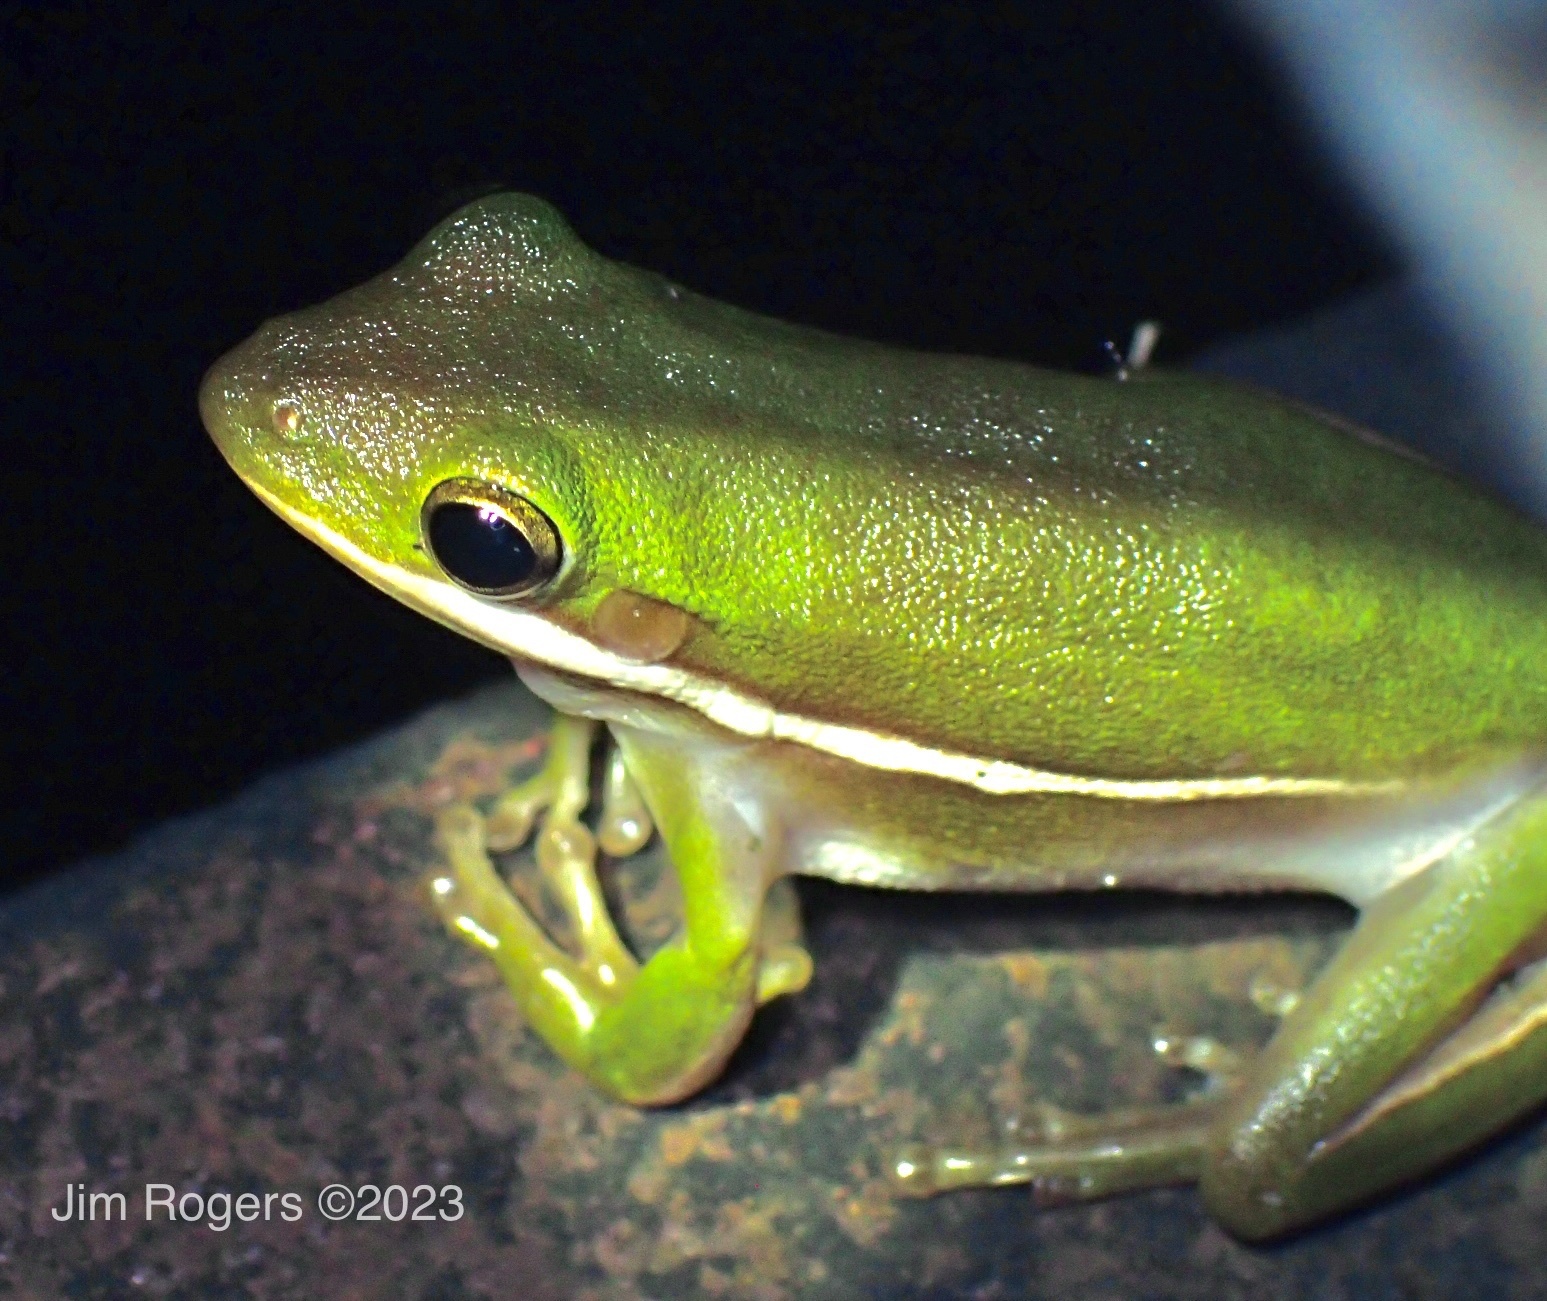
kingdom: Animalia
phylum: Chordata
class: Amphibia
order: Anura
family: Hylidae
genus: Dryophytes
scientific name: Dryophytes cinereus
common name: Green treefrog
